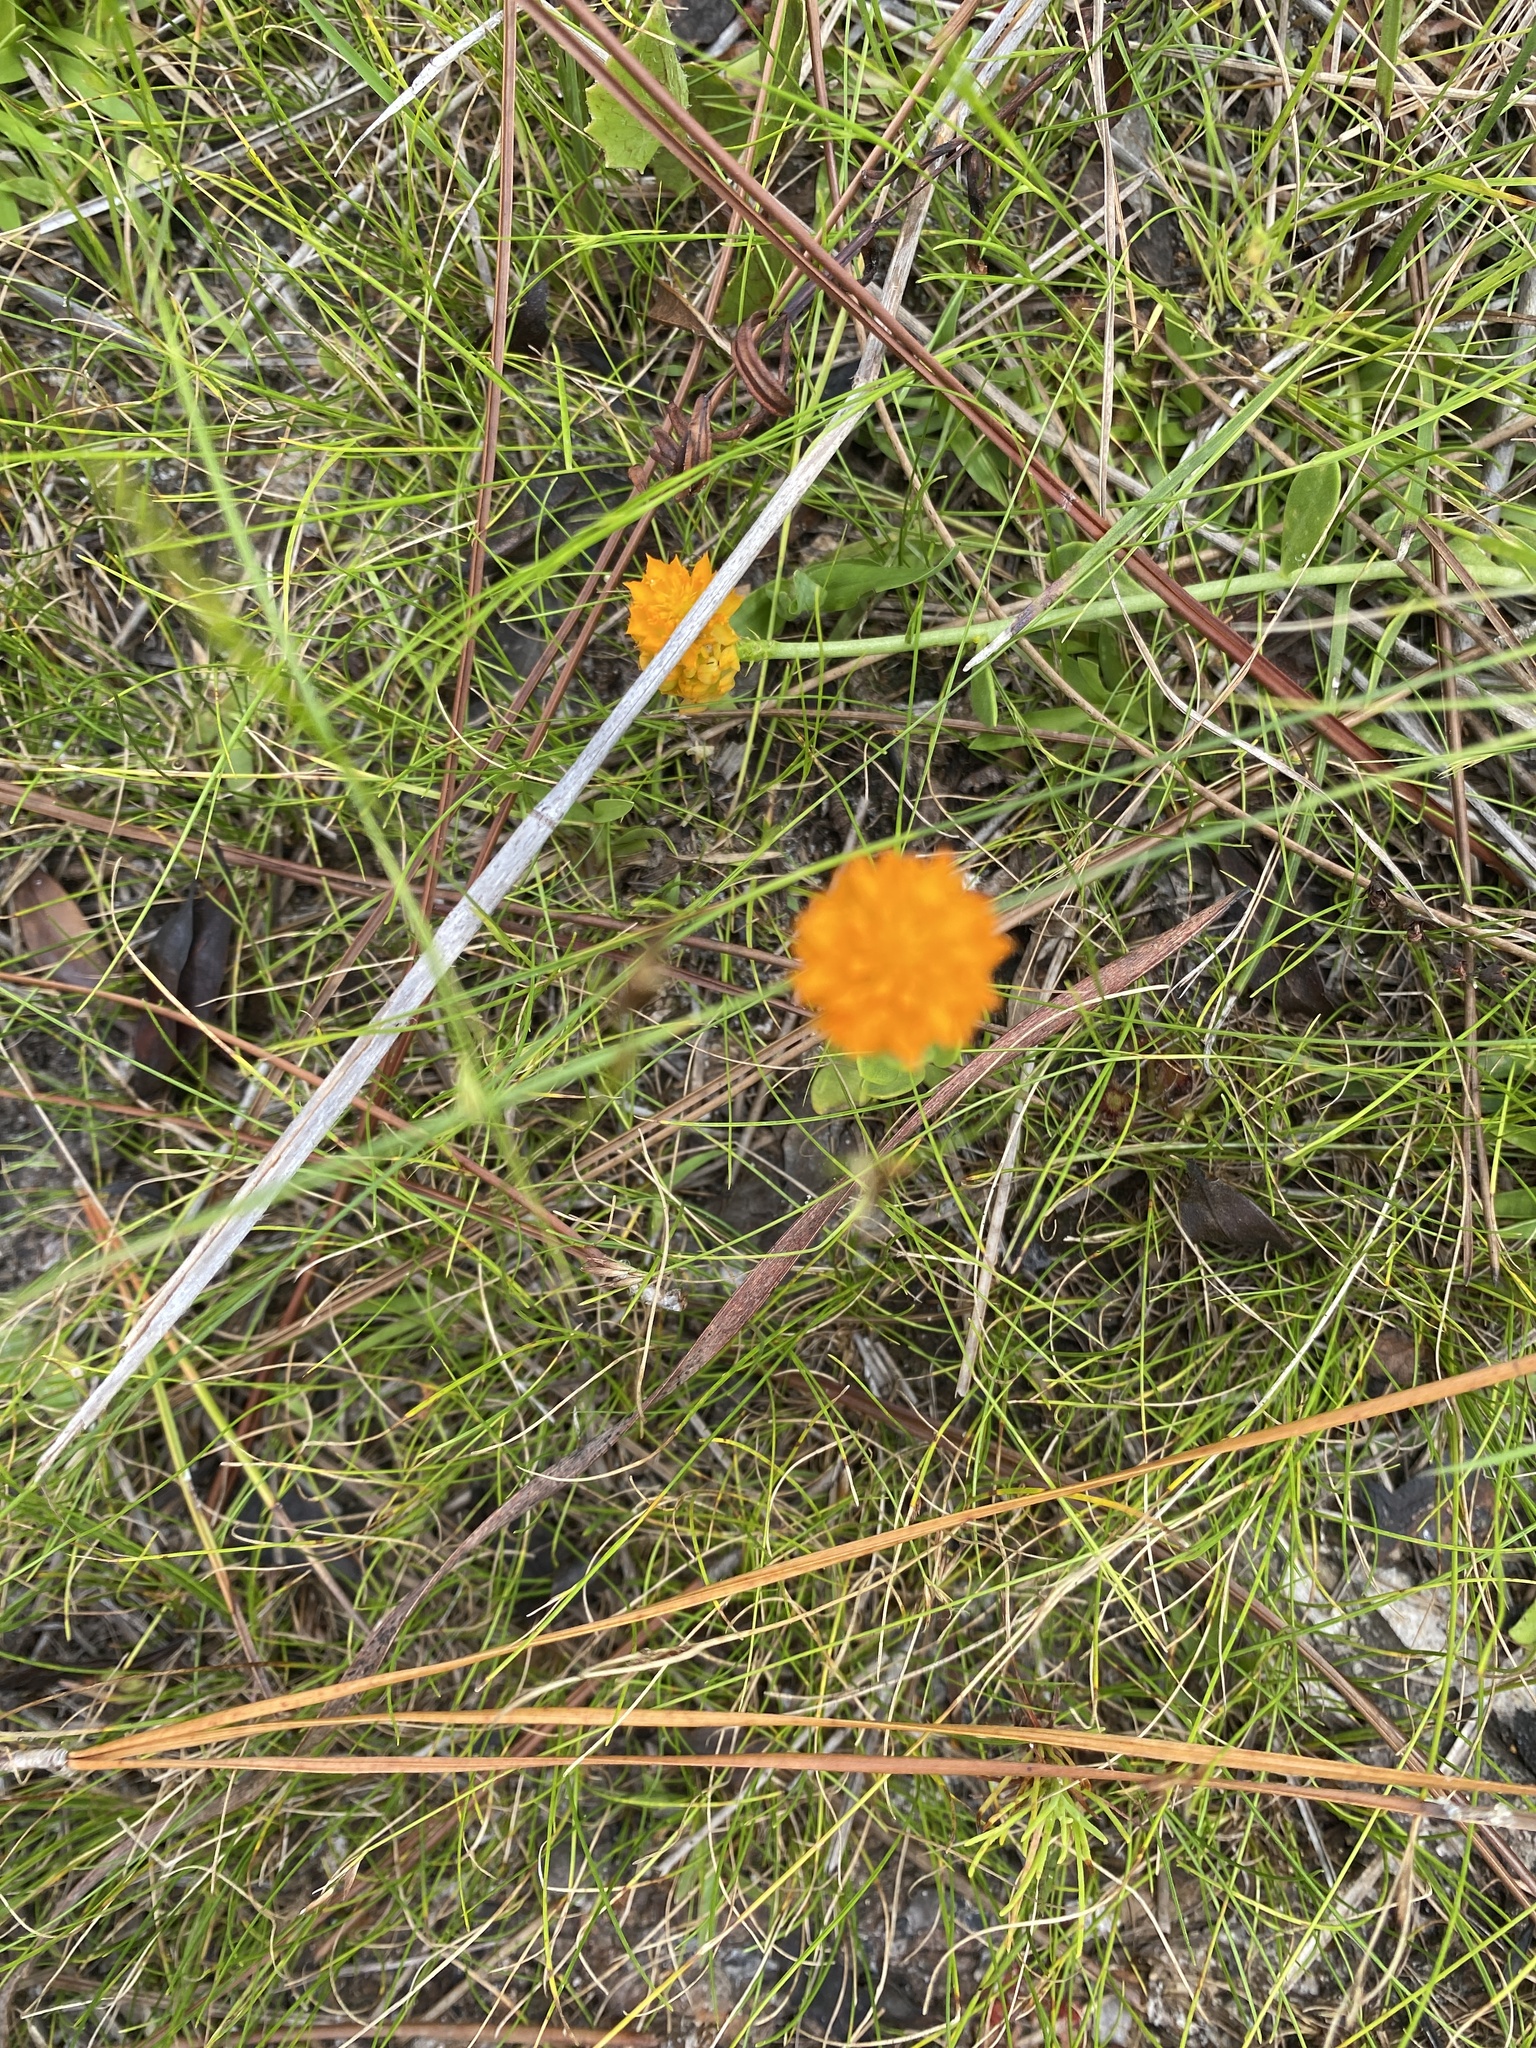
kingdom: Plantae
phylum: Tracheophyta
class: Magnoliopsida
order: Fabales
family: Polygalaceae
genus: Polygala
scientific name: Polygala lutea
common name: Orange milkwort
